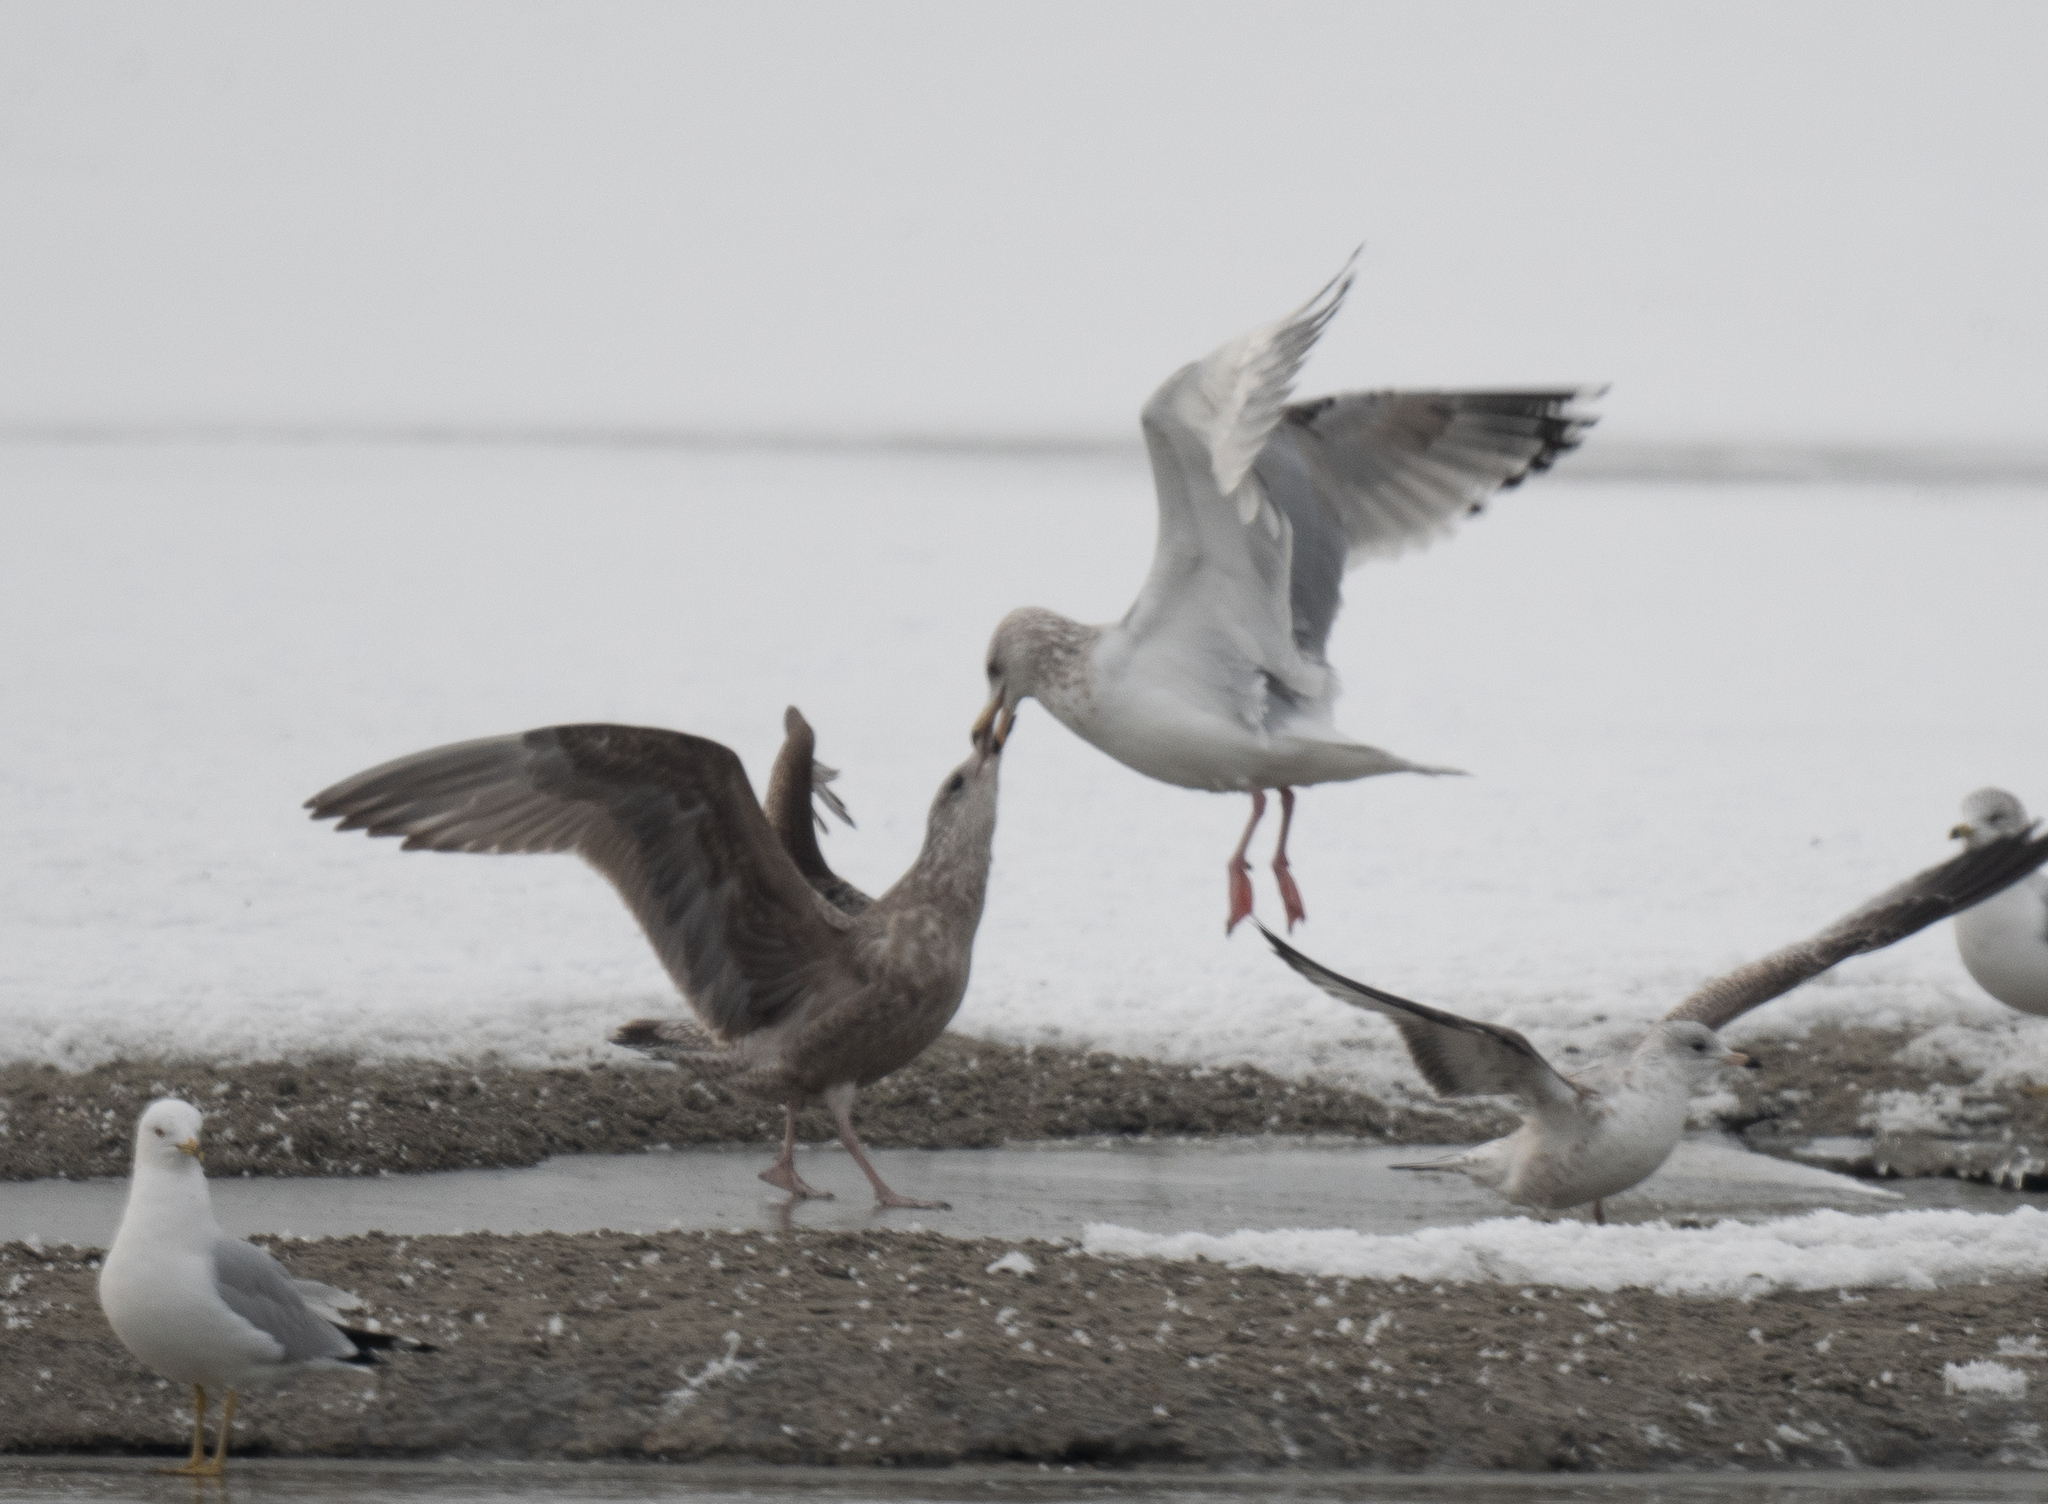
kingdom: Animalia
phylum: Chordata
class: Aves
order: Charadriiformes
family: Laridae
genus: Larus
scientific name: Larus glaucoides
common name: Iceland gull
